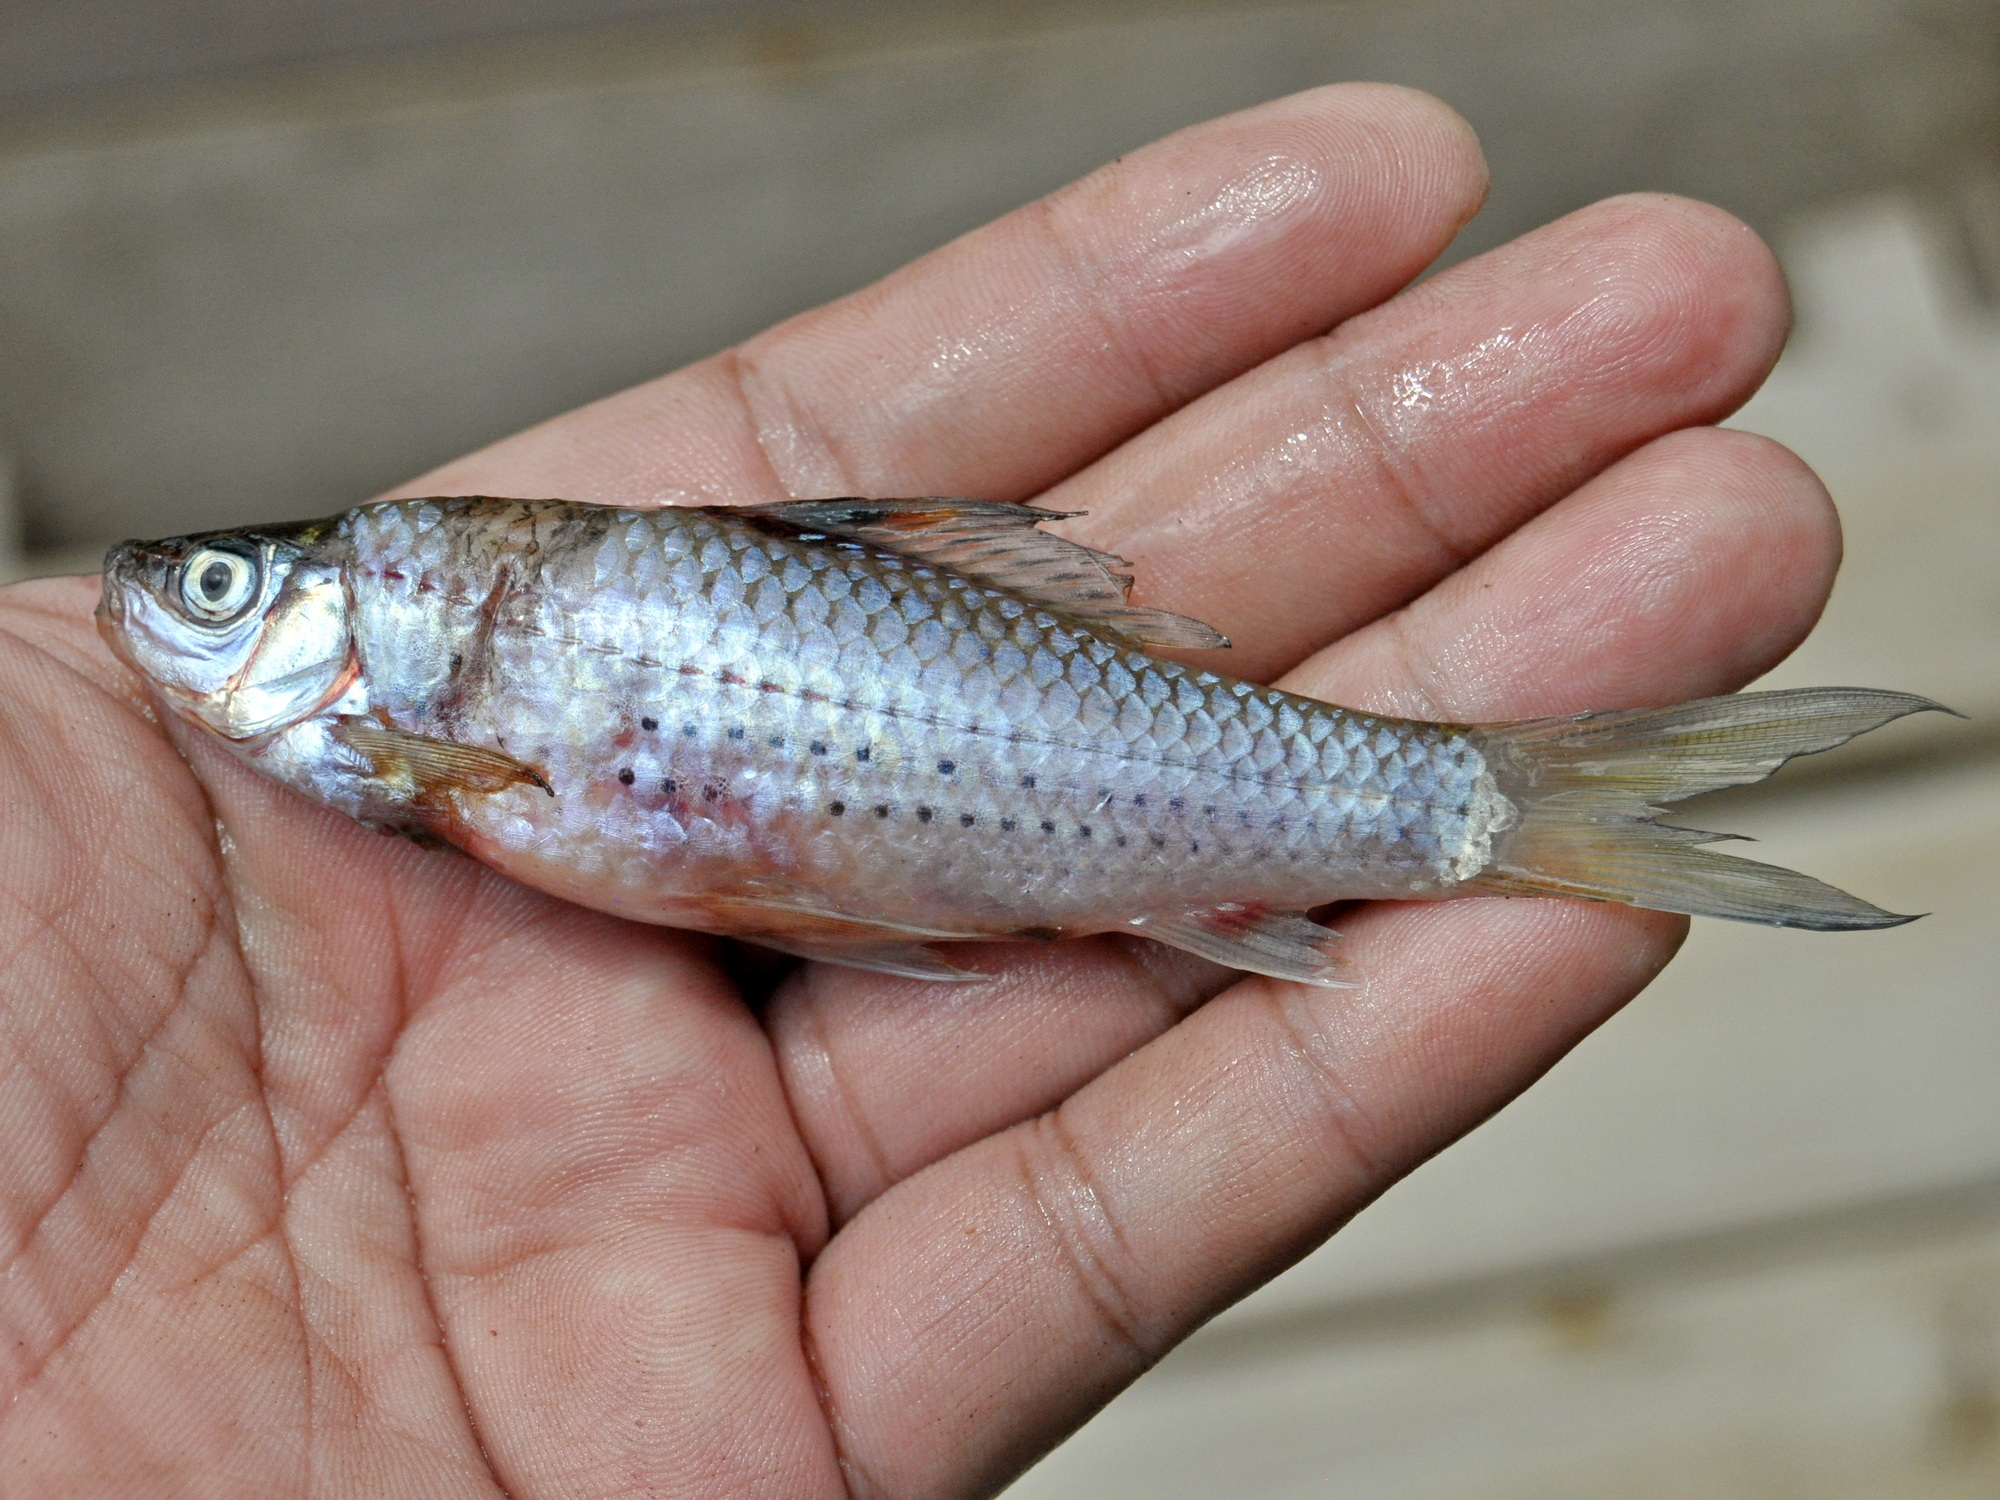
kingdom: Animalia
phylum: Chordata
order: Cypriniformes
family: Cyprinidae
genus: Osteochilus
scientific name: Osteochilus bleekeri
